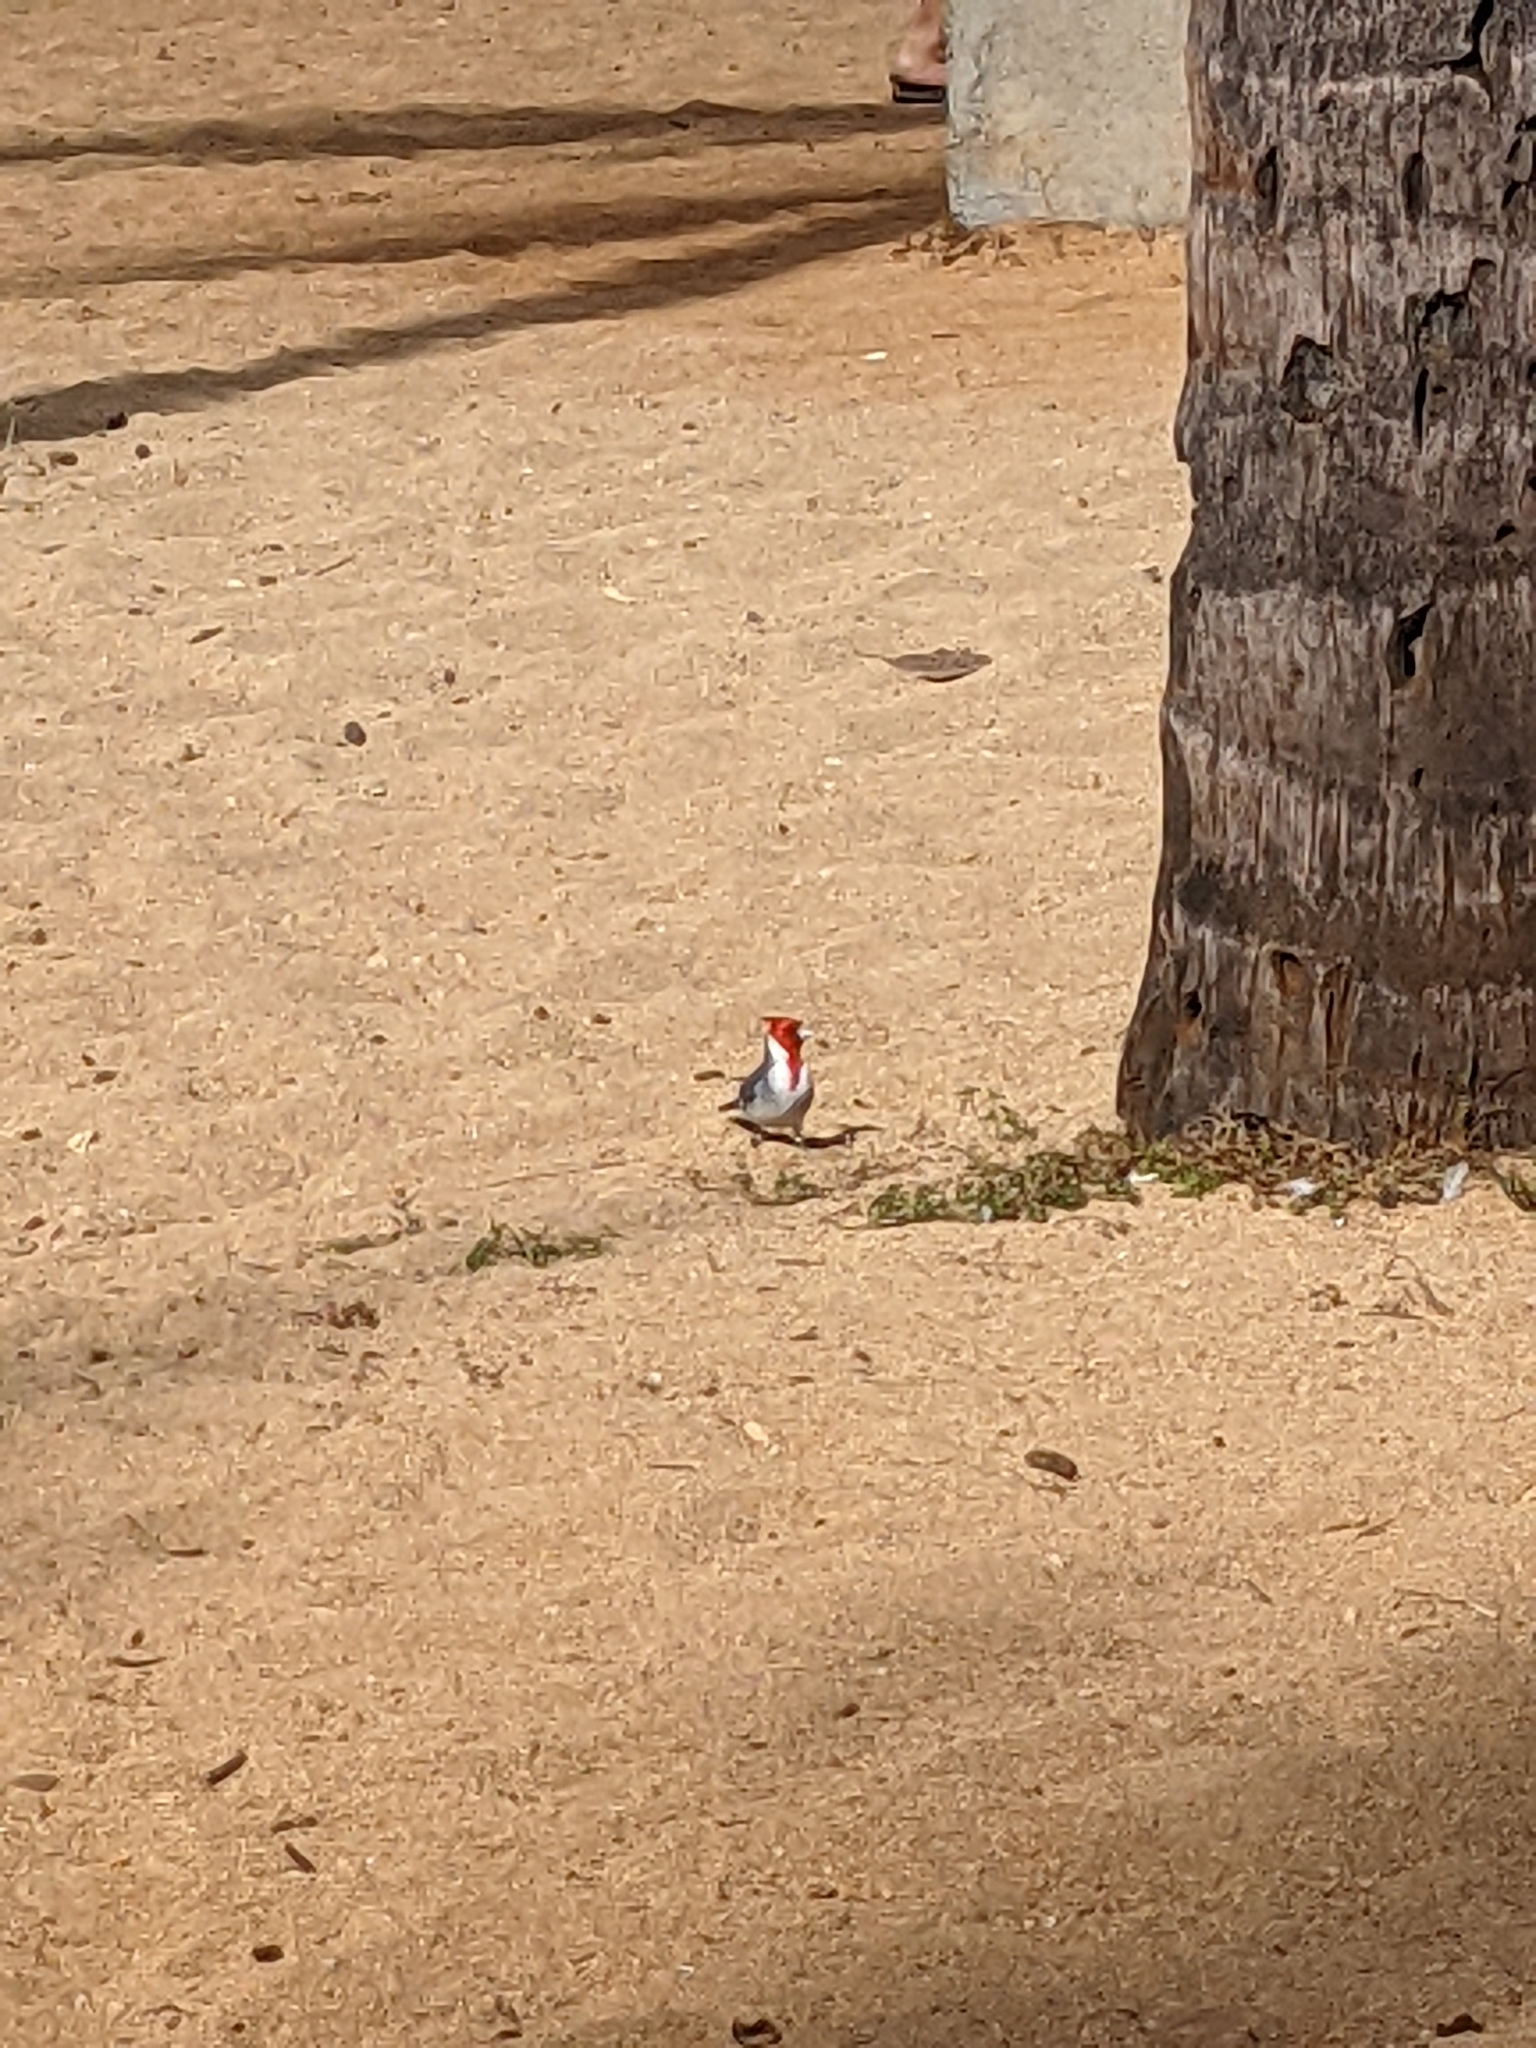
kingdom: Animalia
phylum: Chordata
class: Aves
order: Passeriformes
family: Thraupidae
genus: Paroaria
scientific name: Paroaria coronata
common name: Red-crested cardinal
